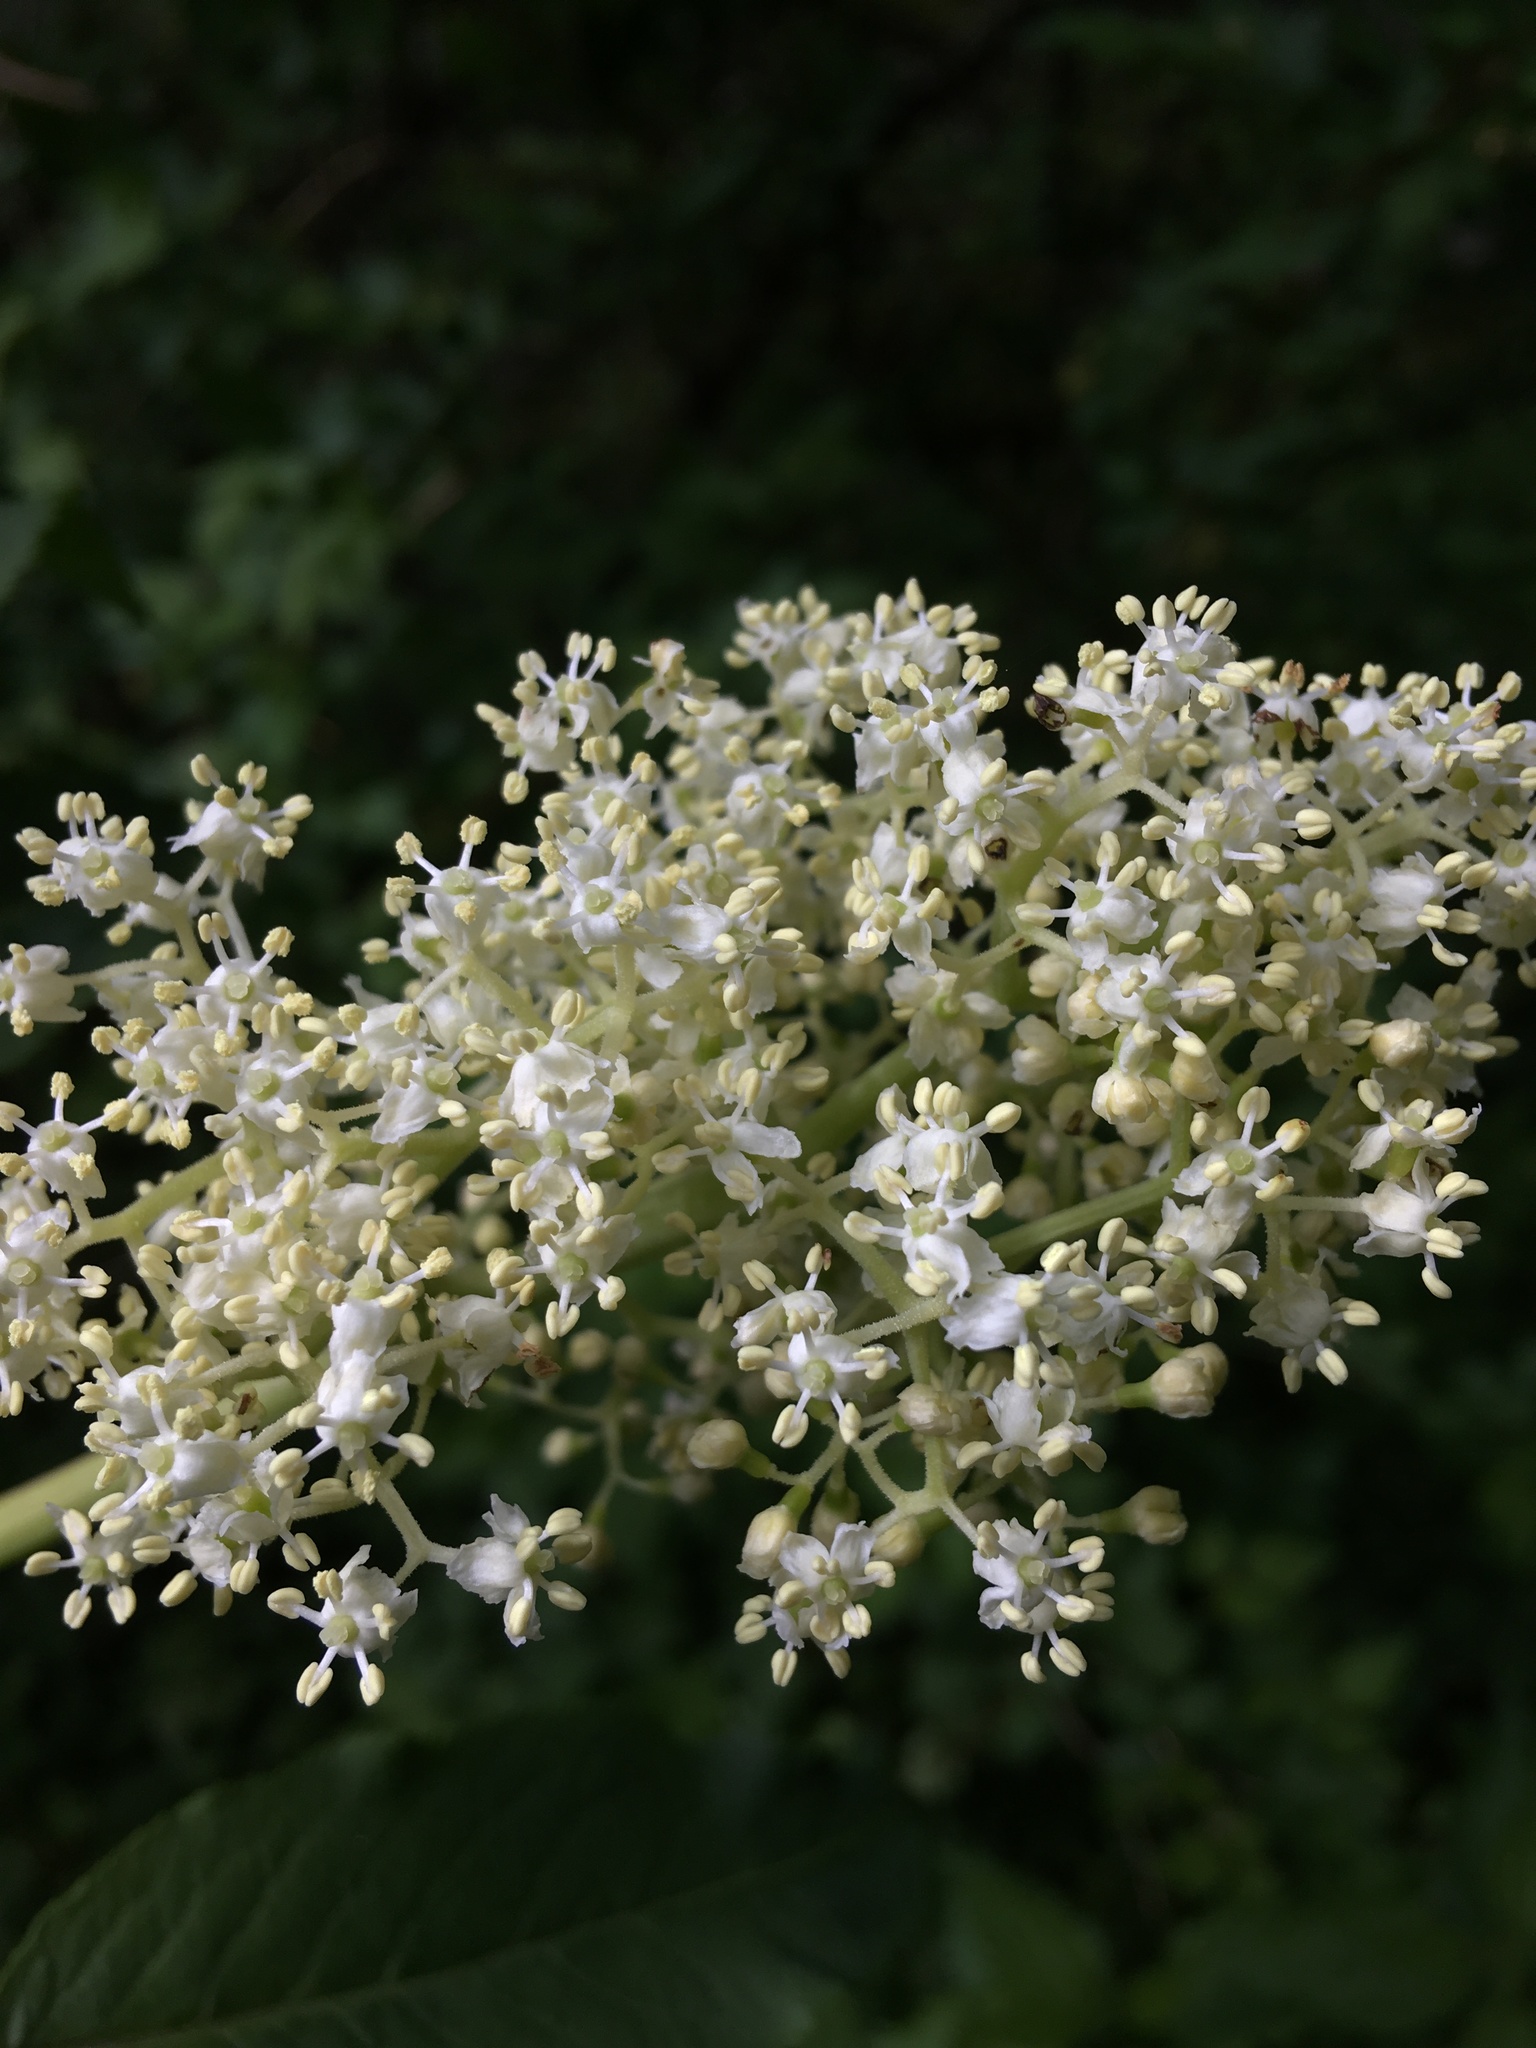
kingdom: Plantae
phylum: Tracheophyta
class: Magnoliopsida
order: Dipsacales
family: Viburnaceae
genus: Sambucus
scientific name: Sambucus racemosa
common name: Red-berried elder
